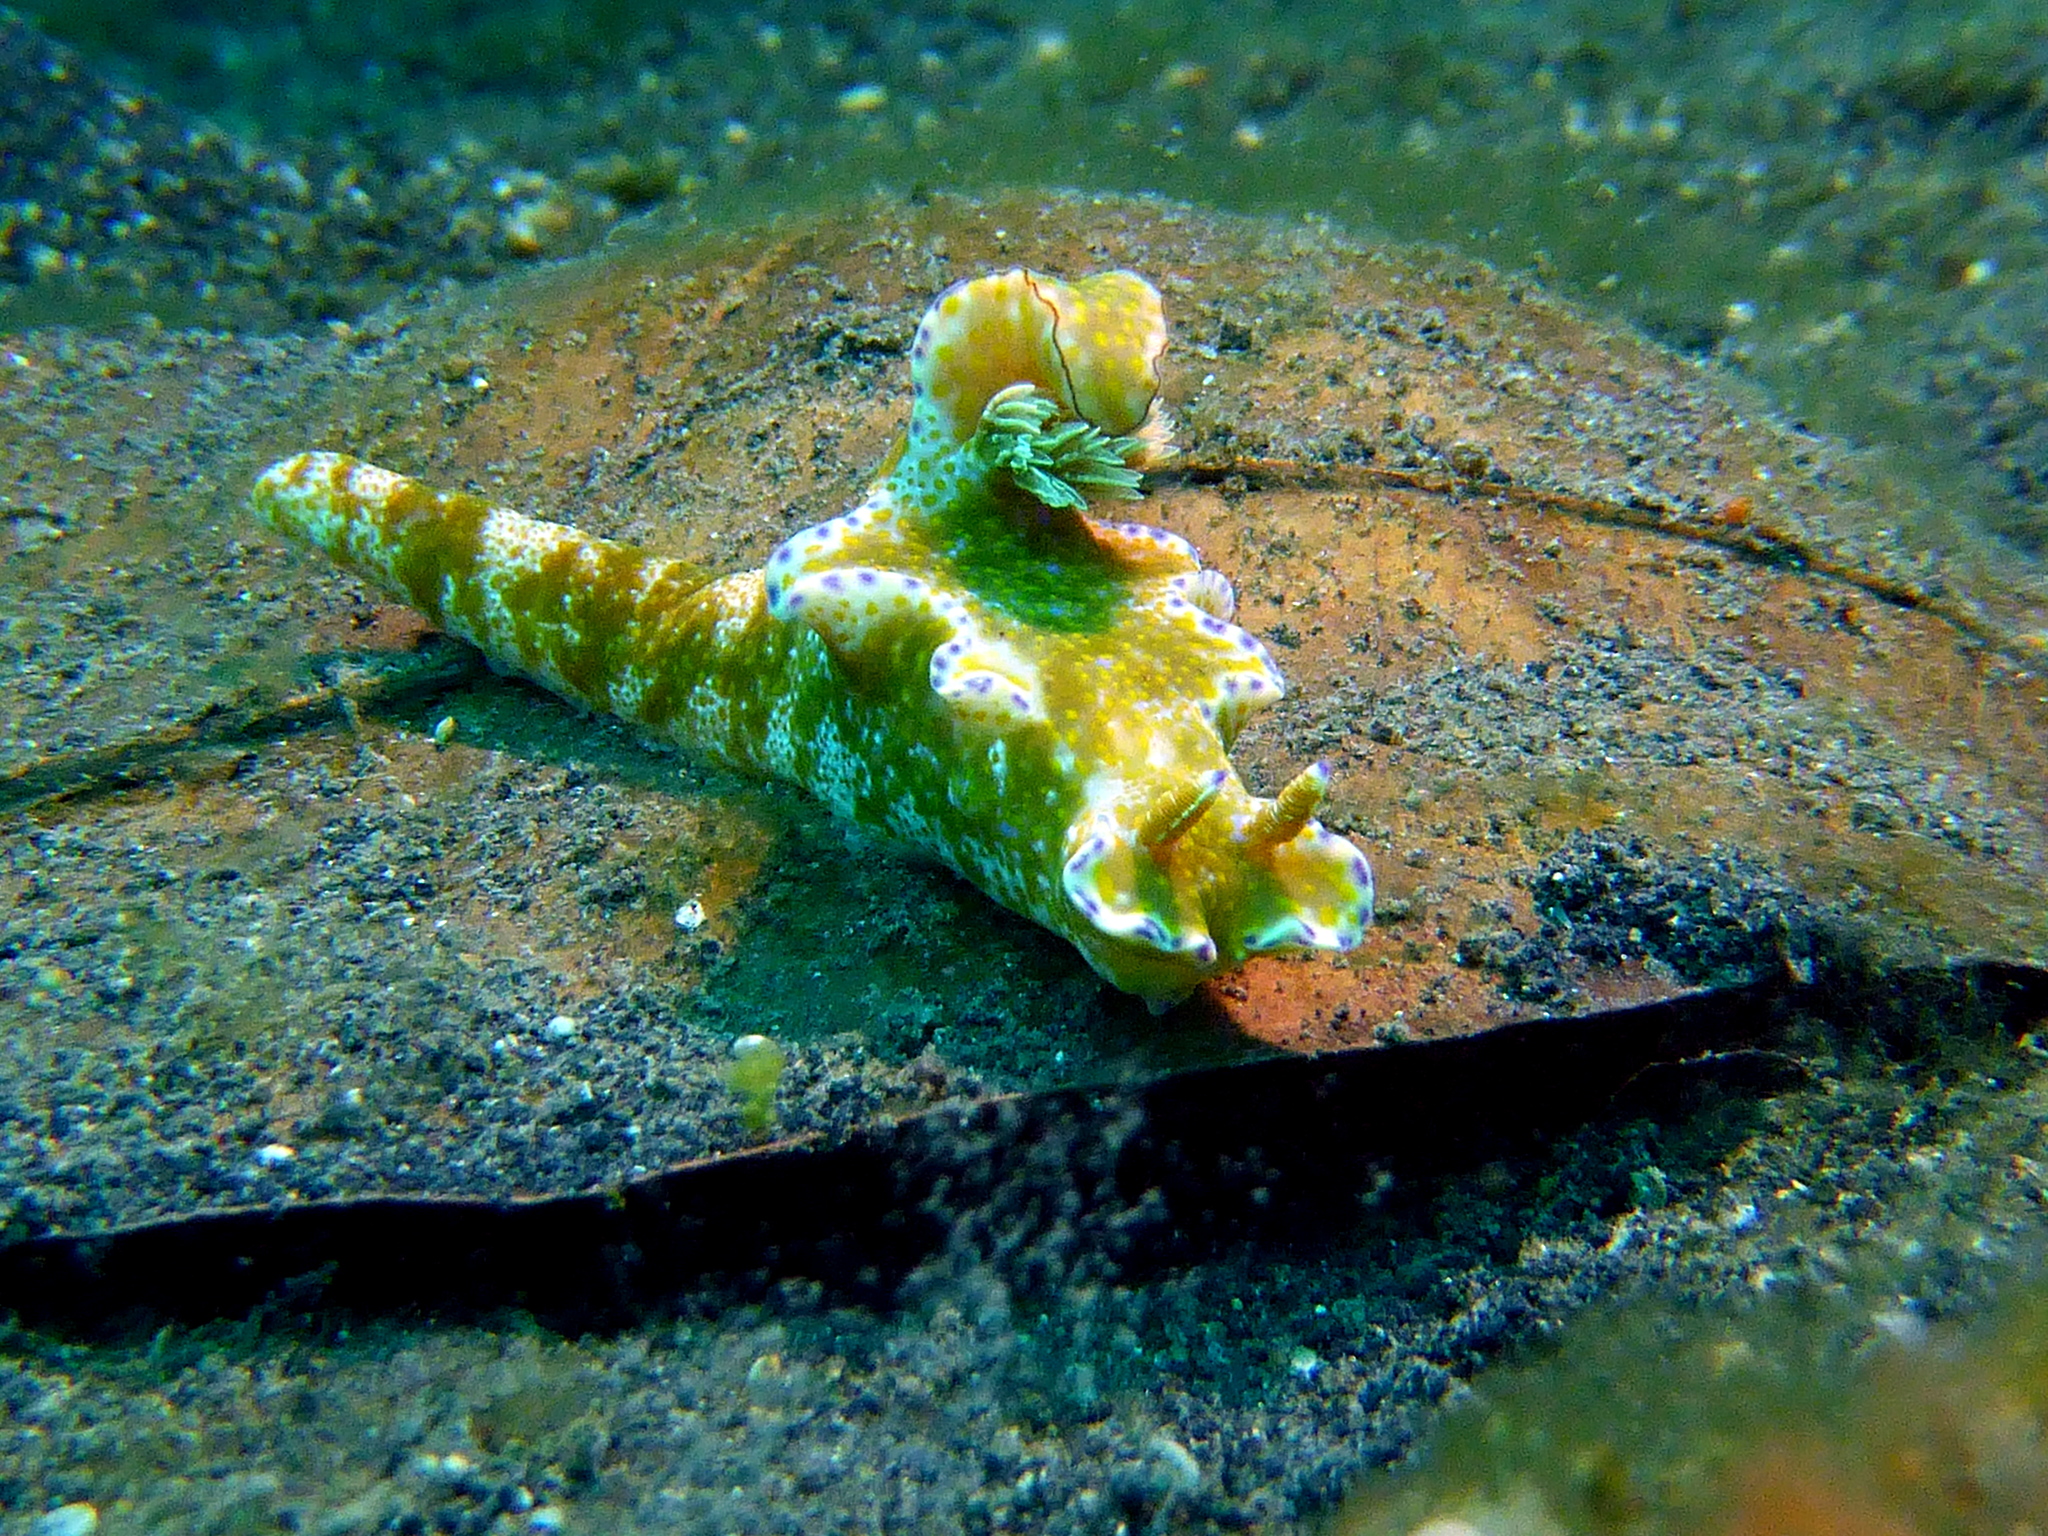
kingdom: Animalia
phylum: Mollusca
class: Gastropoda
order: Nudibranchia
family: Chromodorididae
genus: Ceratosoma
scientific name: Ceratosoma tenue
